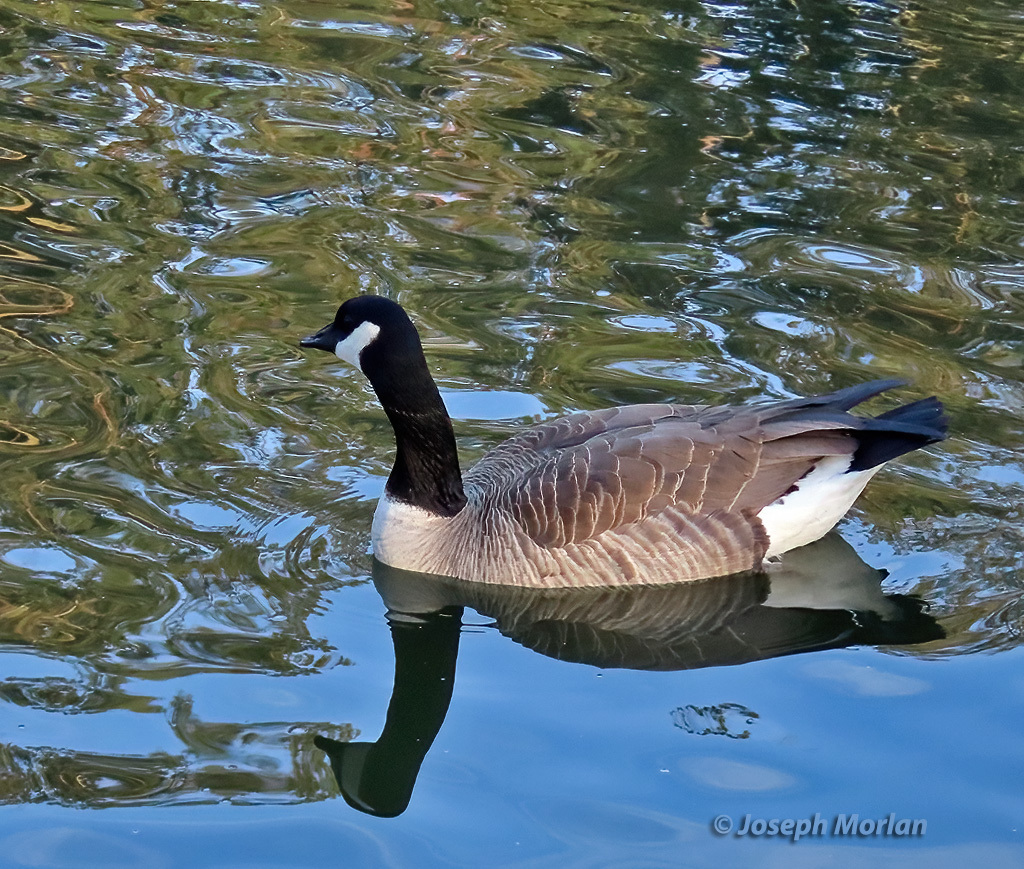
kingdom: Animalia
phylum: Chordata
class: Aves
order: Anseriformes
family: Anatidae
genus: Branta
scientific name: Branta canadensis
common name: Canada goose
